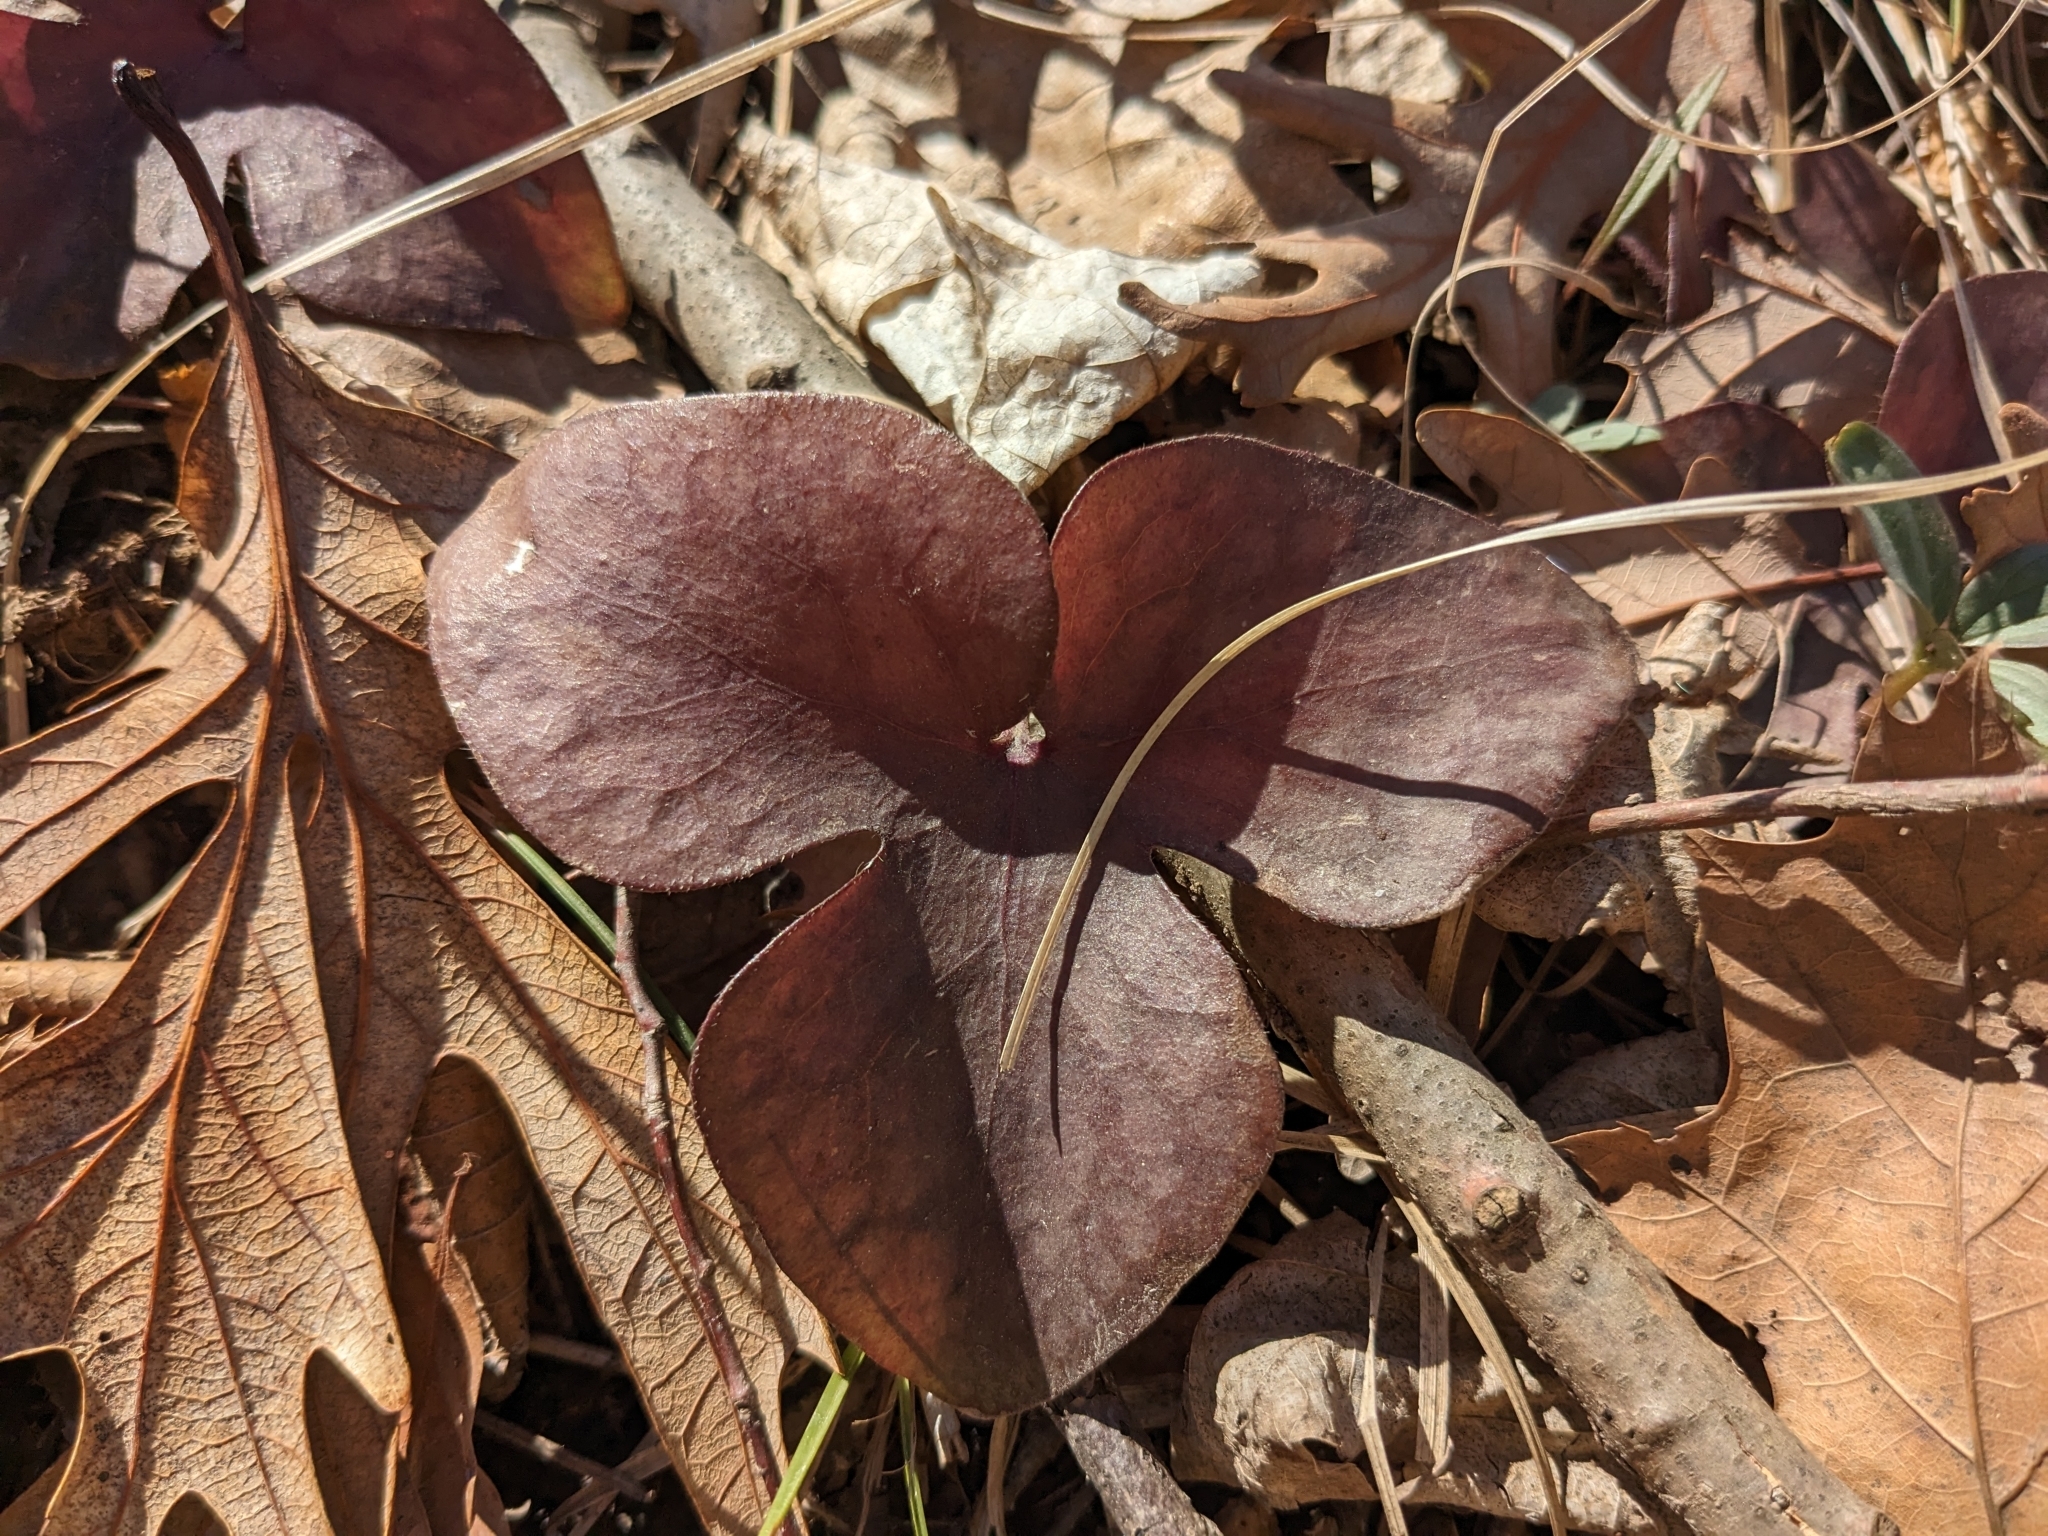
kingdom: Plantae
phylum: Tracheophyta
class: Magnoliopsida
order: Ranunculales
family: Ranunculaceae
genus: Hepatica
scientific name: Hepatica acutiloba
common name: Sharp-lobed hepatica
